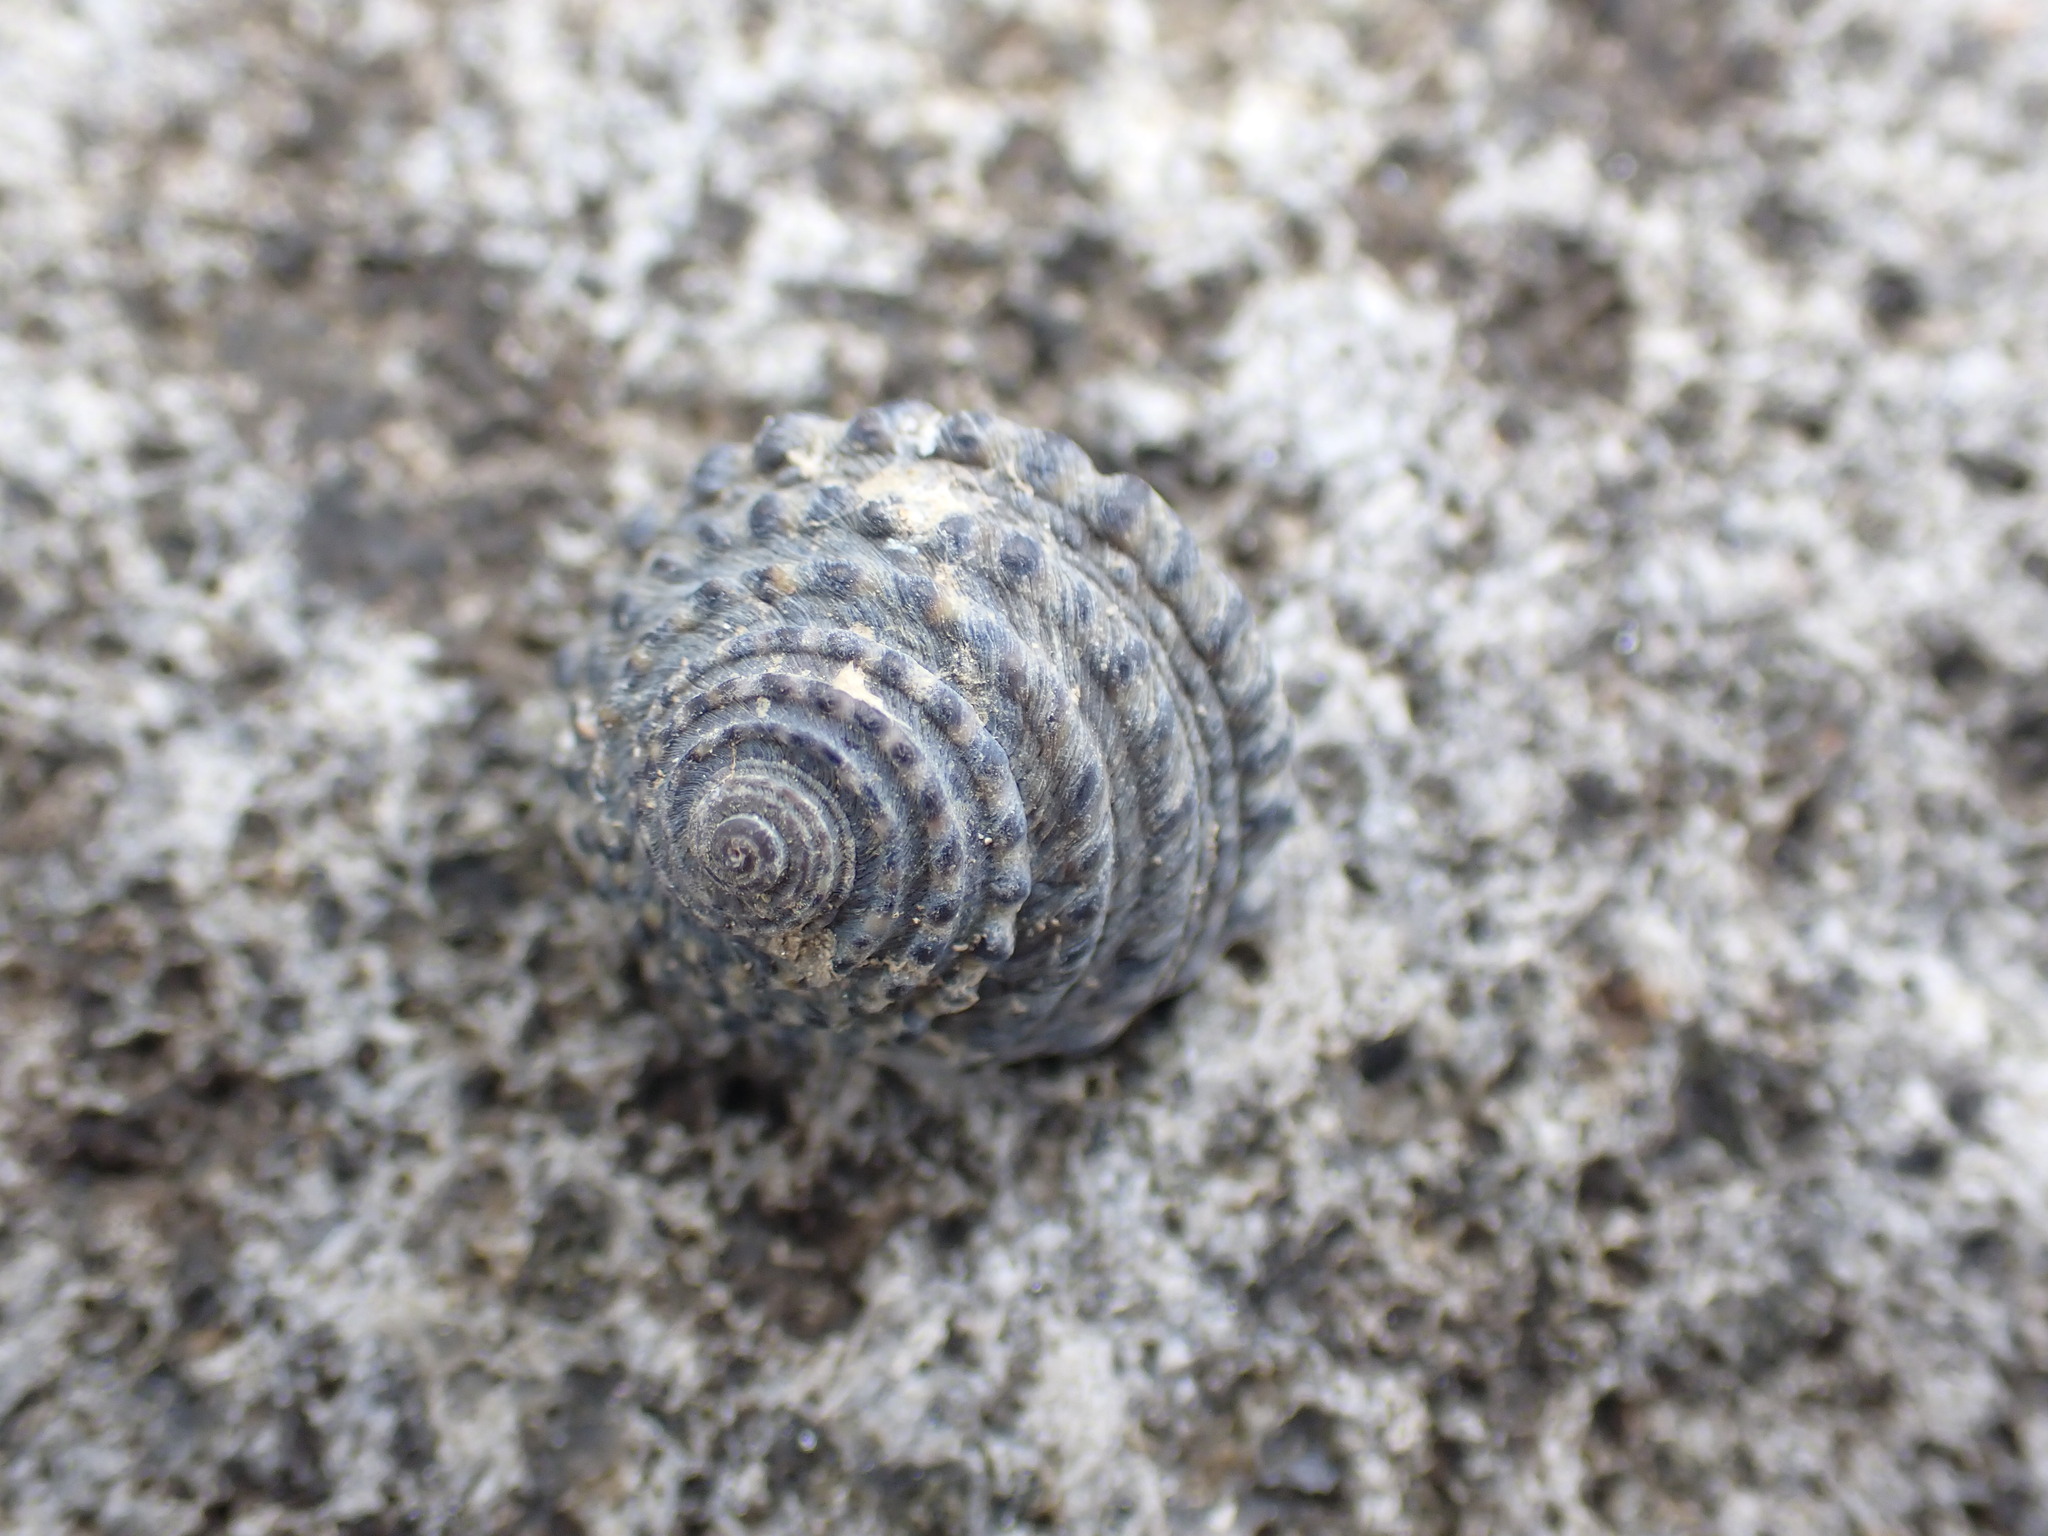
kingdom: Animalia
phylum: Mollusca
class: Gastropoda
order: Trochida
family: Trochidae
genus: Diloma
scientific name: Diloma bicanaliculatum
